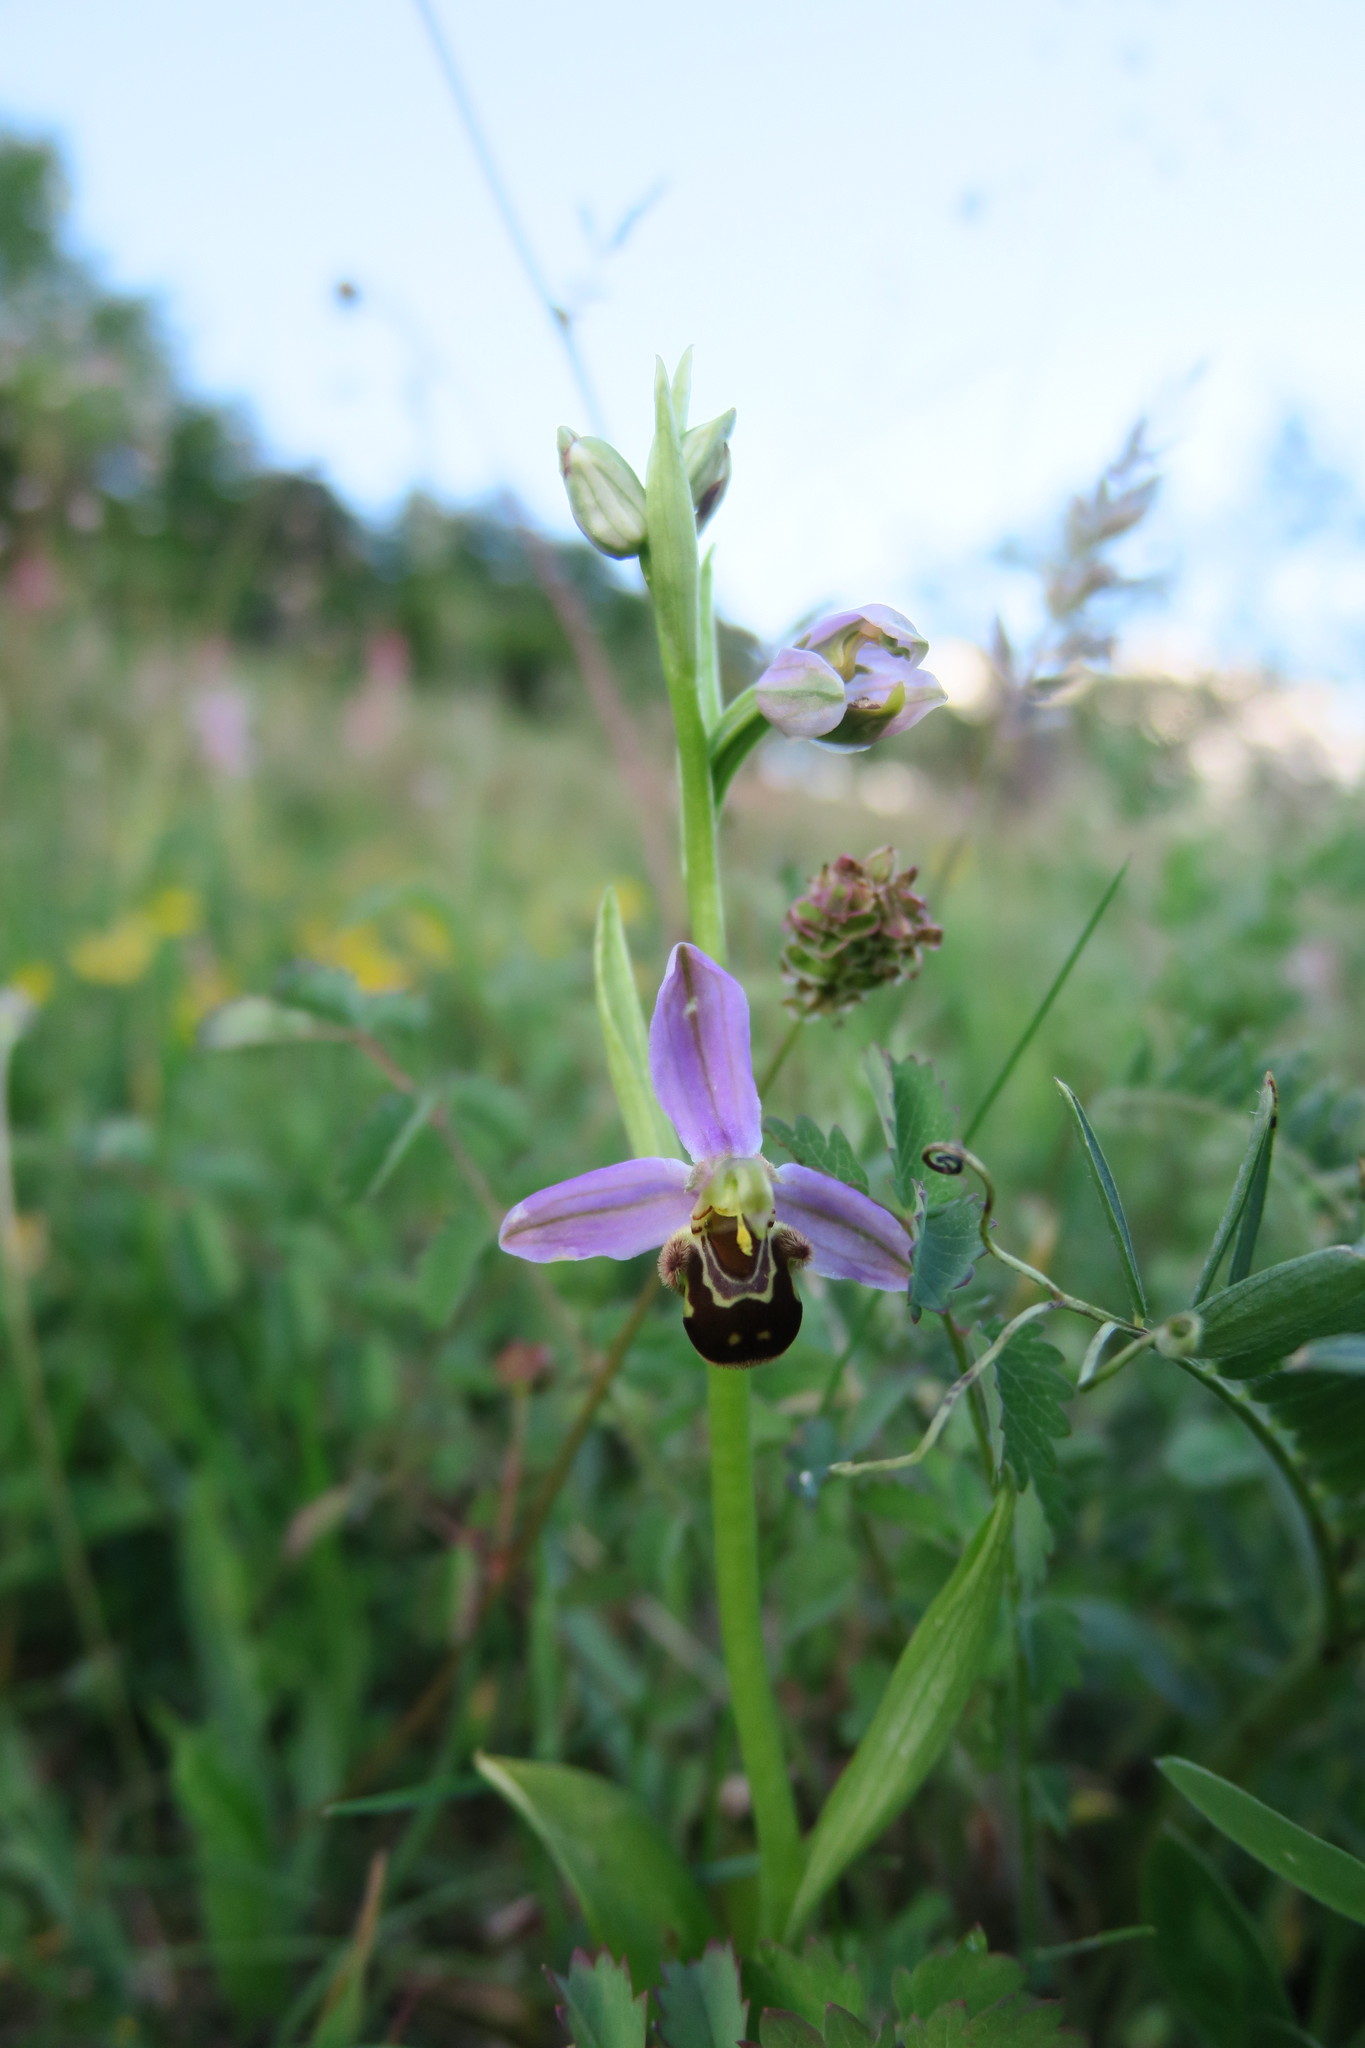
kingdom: Plantae
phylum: Tracheophyta
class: Liliopsida
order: Asparagales
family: Orchidaceae
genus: Ophrys
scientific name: Ophrys apifera
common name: Bee orchid
